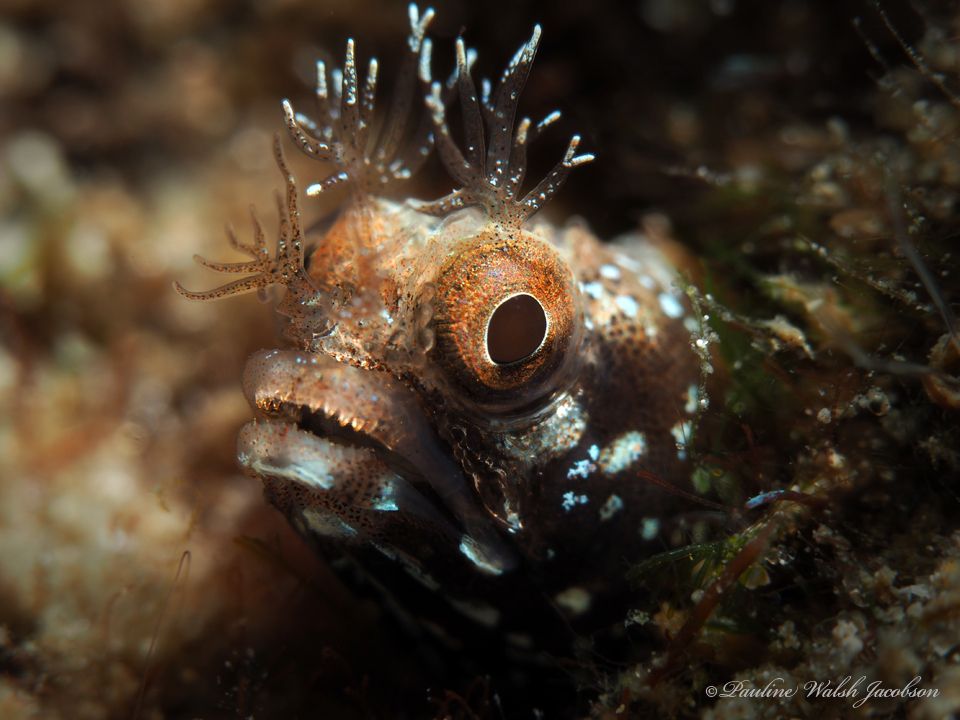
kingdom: Animalia
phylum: Chordata
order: Perciformes
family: Chaenopsidae
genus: Acanthemblemaria
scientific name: Acanthemblemaria aspera
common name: Roughhead blenny
